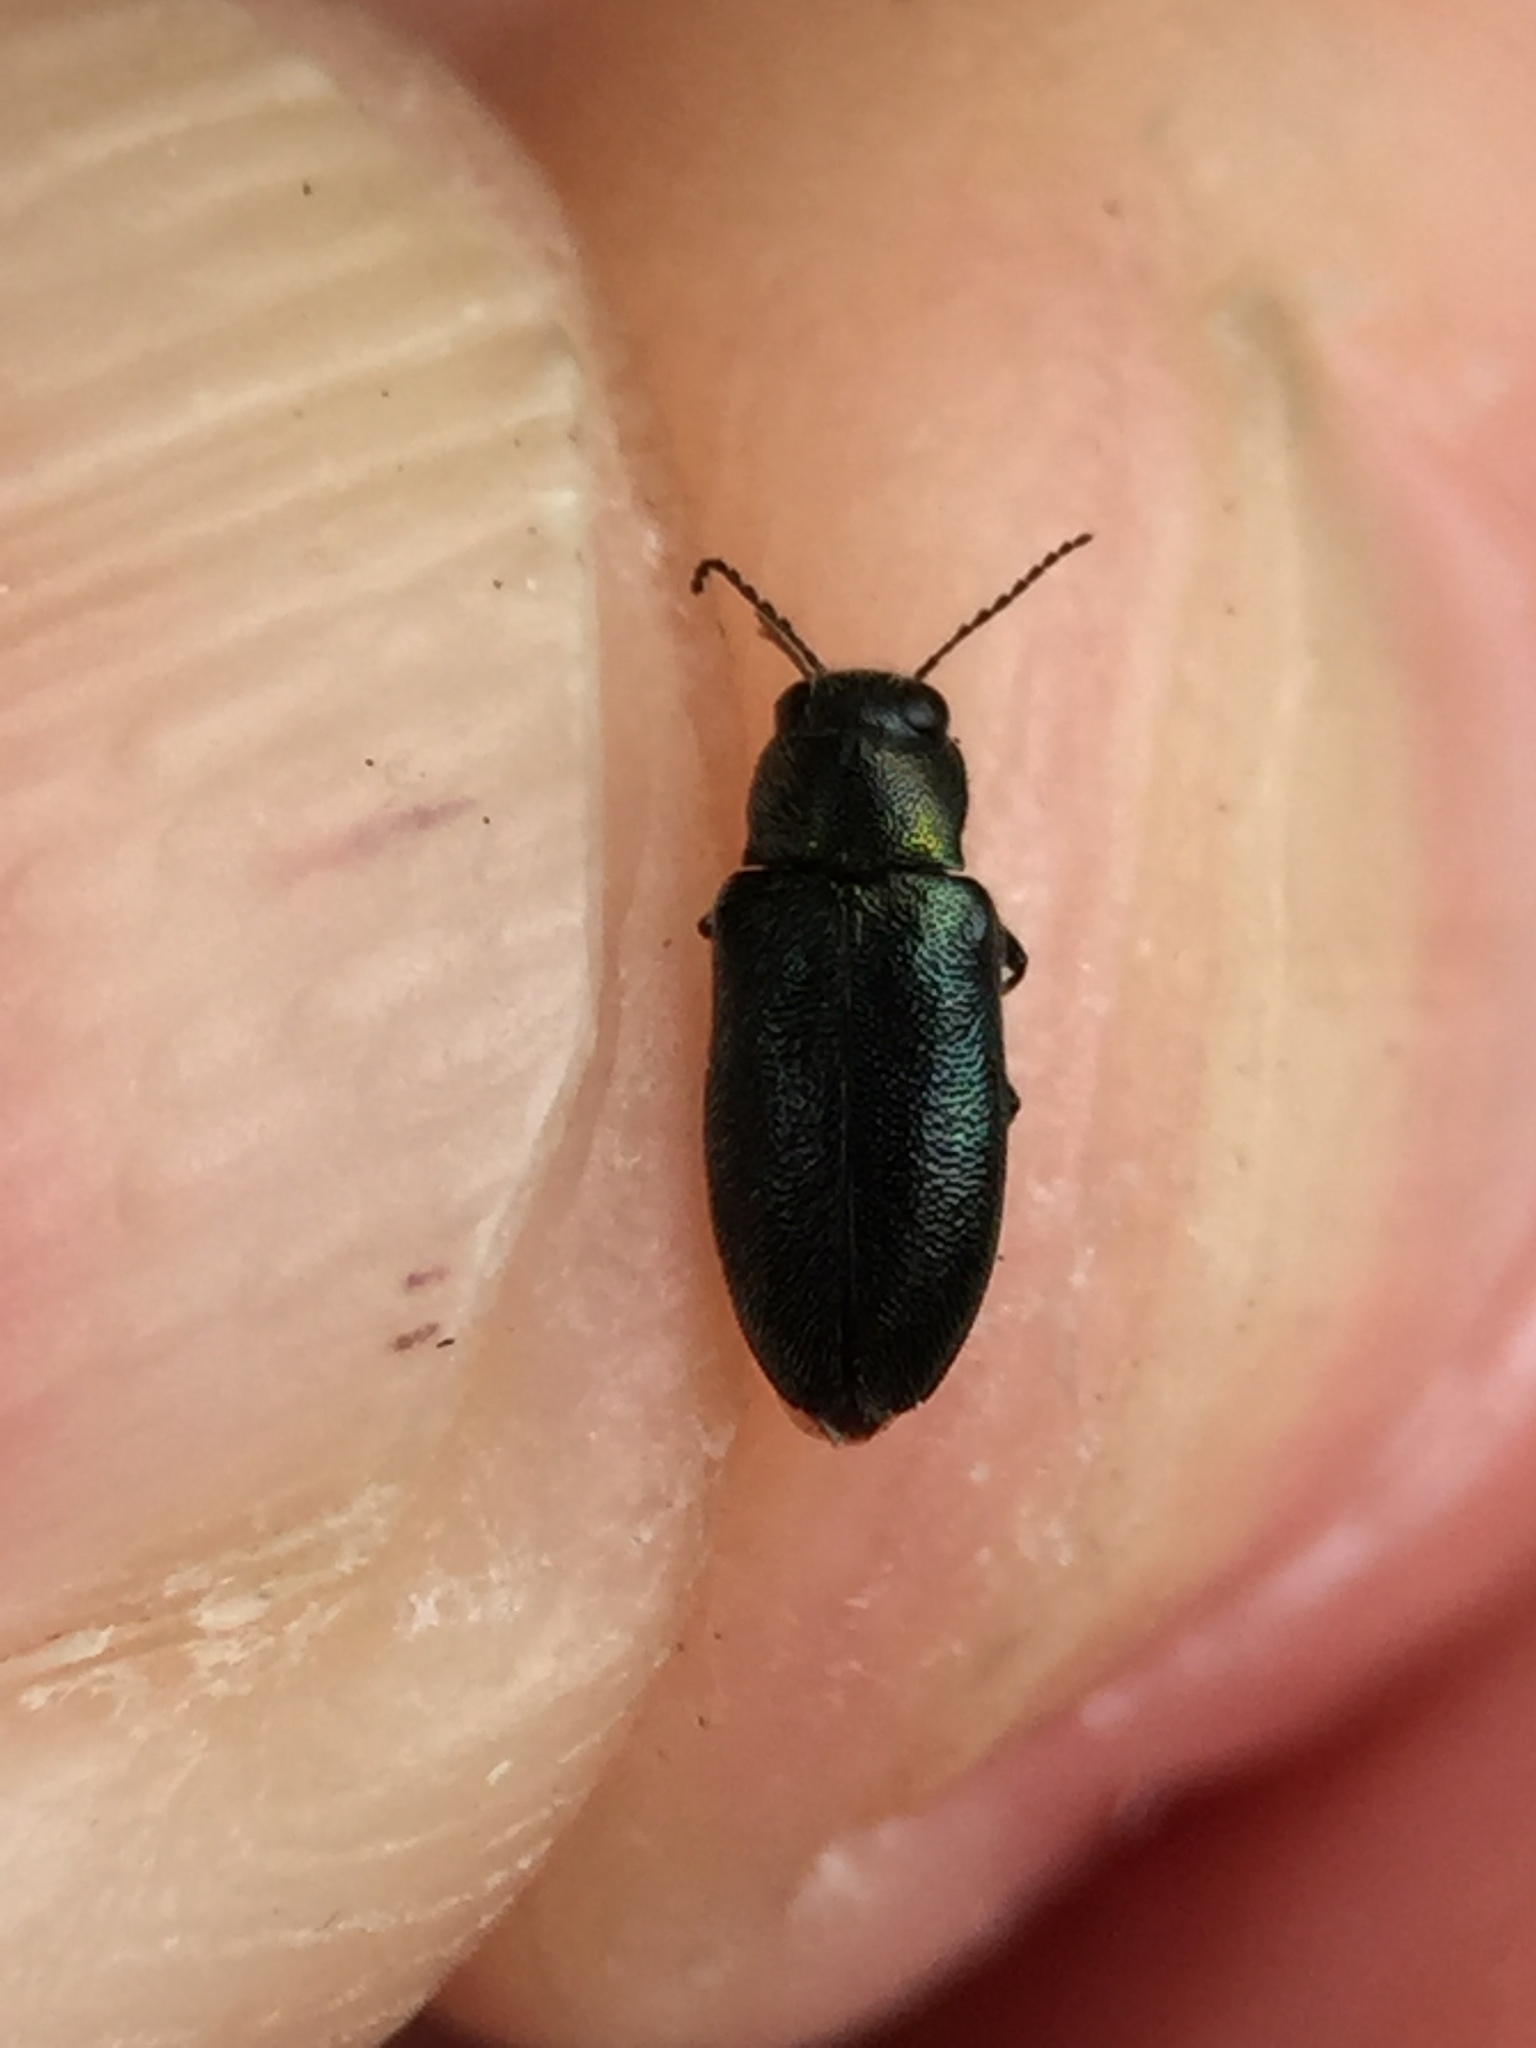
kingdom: Animalia
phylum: Arthropoda
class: Insecta
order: Coleoptera
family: Buprestidae
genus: Maoraxia
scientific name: Maoraxia eremita
